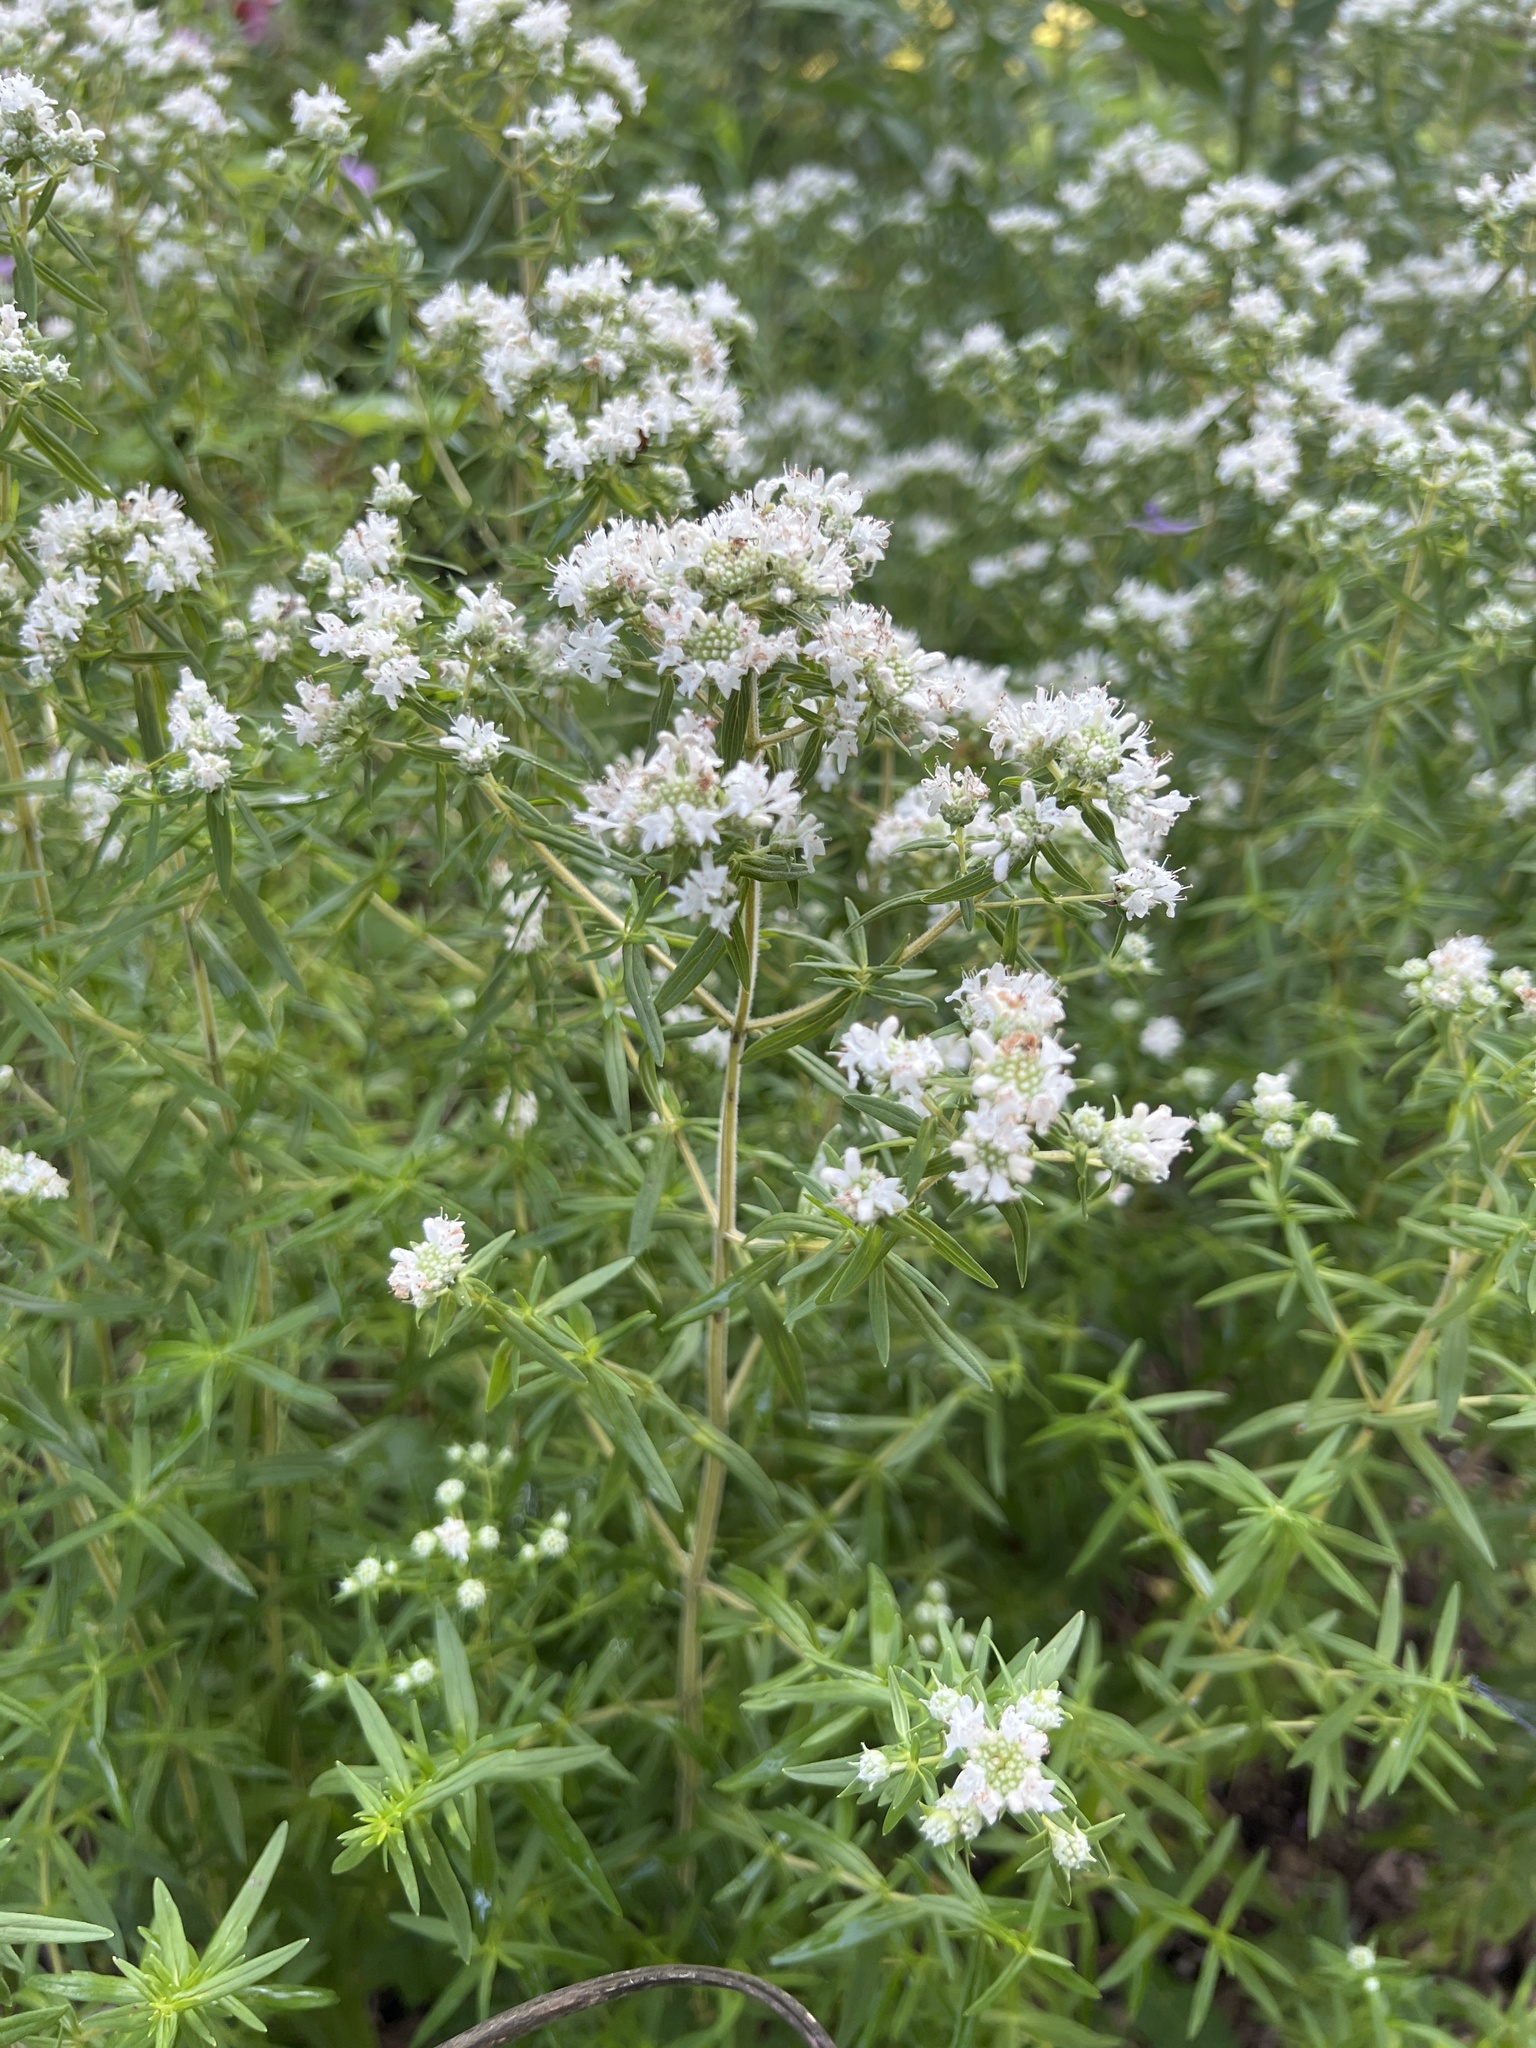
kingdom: Plantae
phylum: Tracheophyta
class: Magnoliopsida
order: Lamiales
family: Lamiaceae
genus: Pycnanthemum
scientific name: Pycnanthemum virginianum
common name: Virginia mountain-mint
